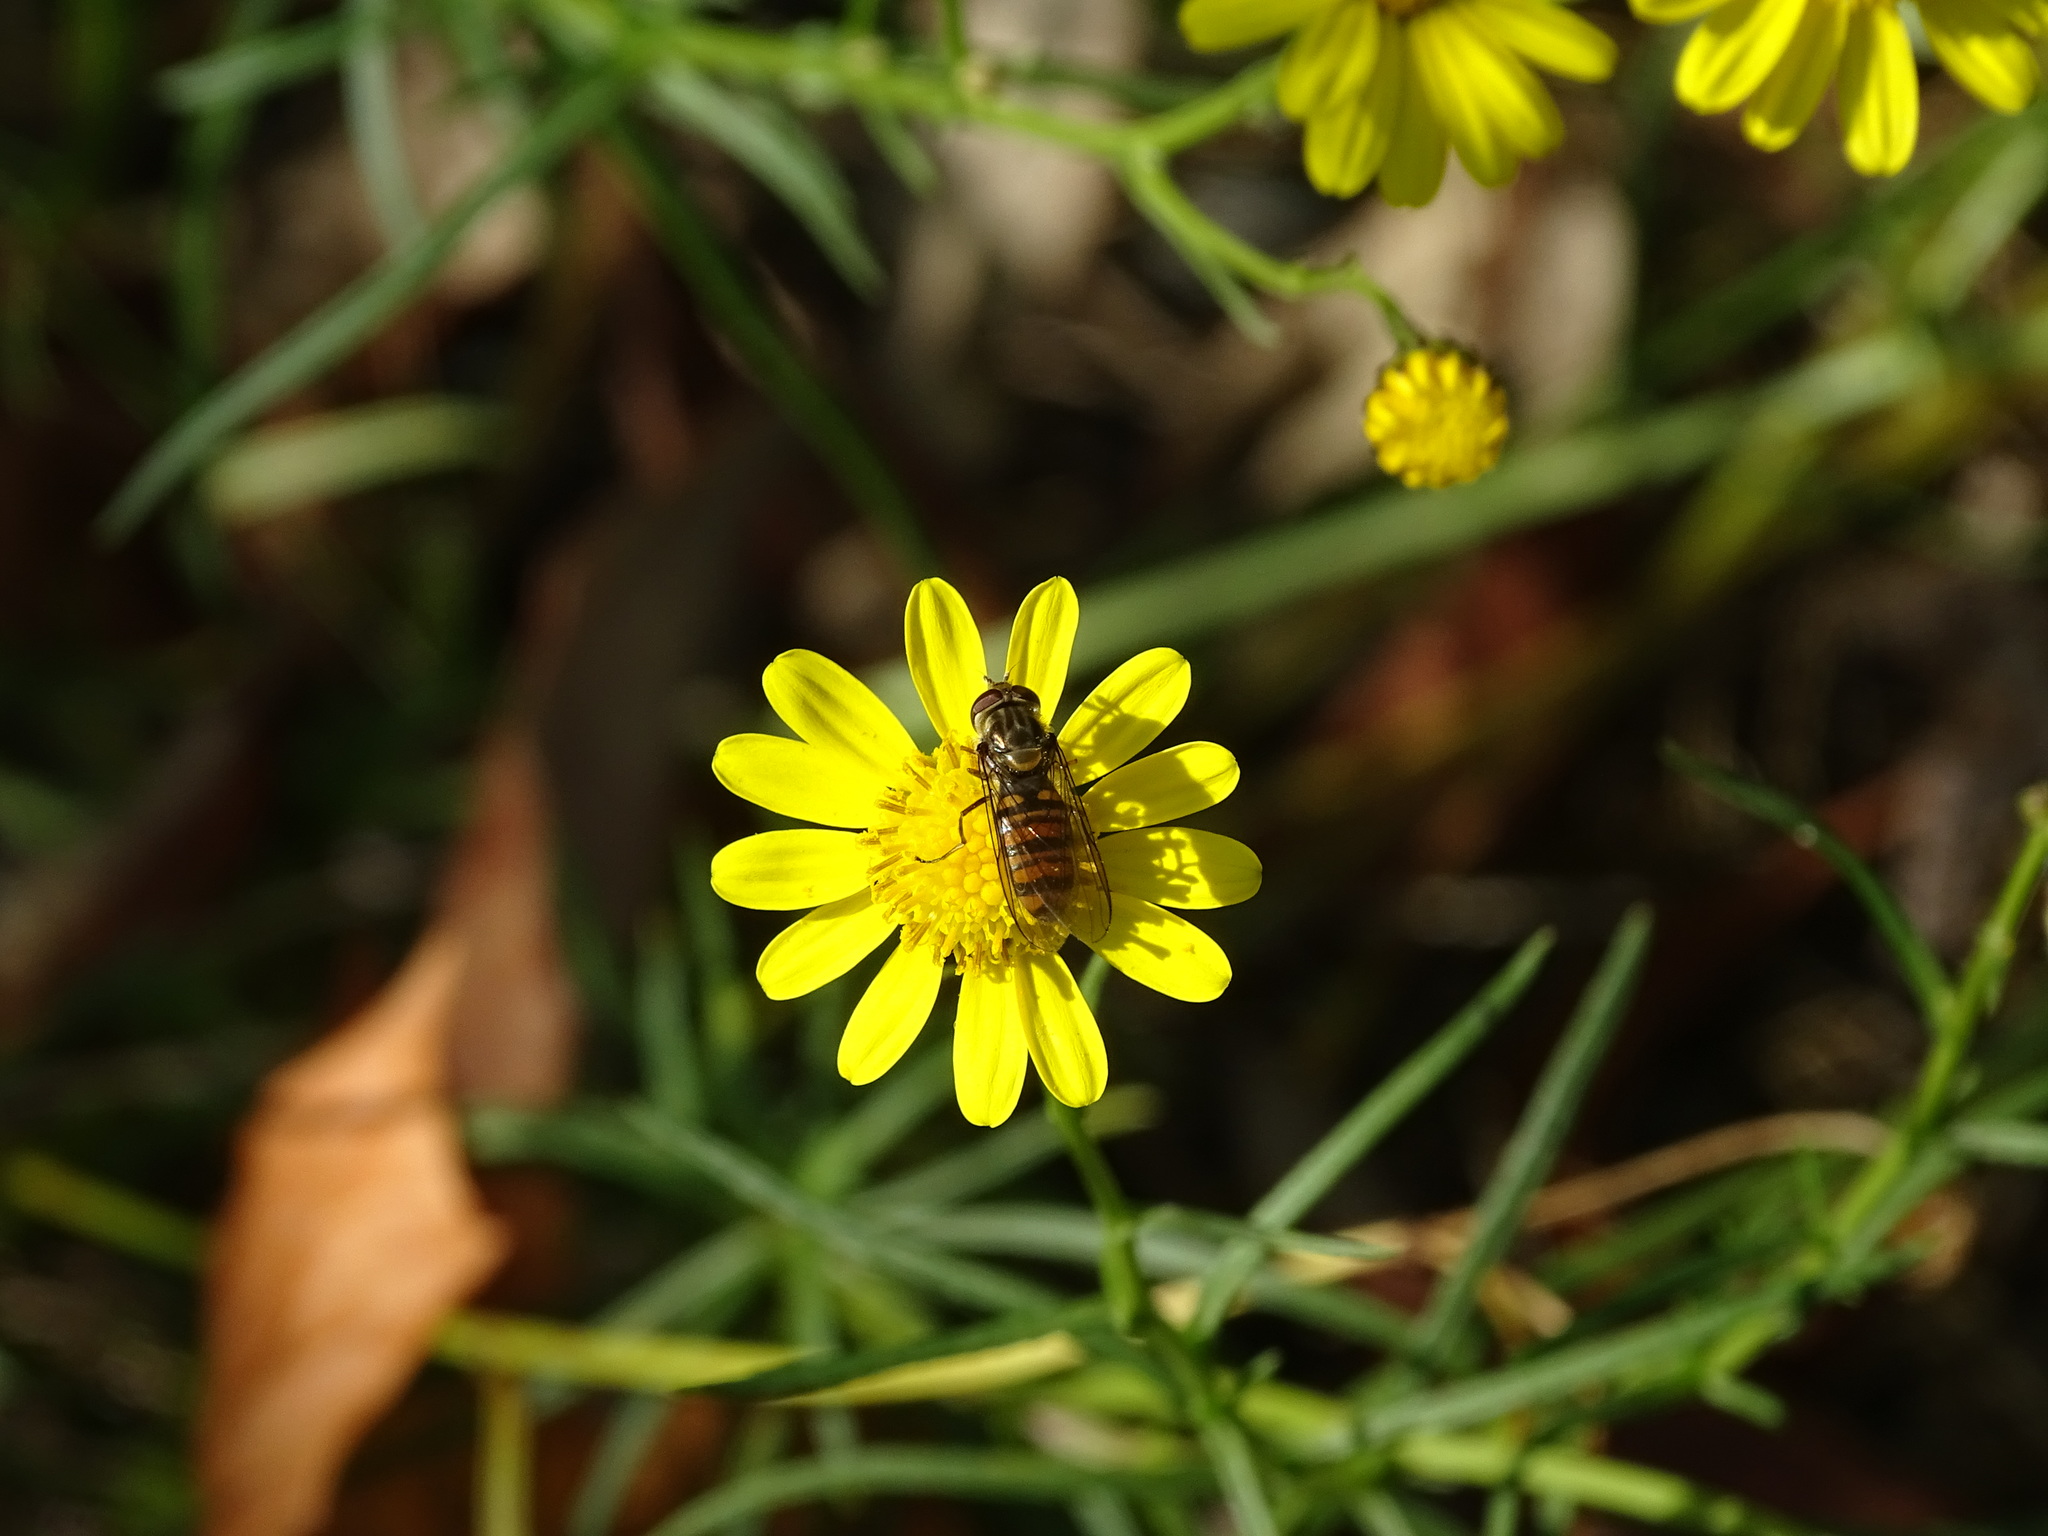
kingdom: Animalia
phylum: Arthropoda
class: Insecta
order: Diptera
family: Syrphidae
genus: Episyrphus
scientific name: Episyrphus balteatus
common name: Marmalade hoverfly
